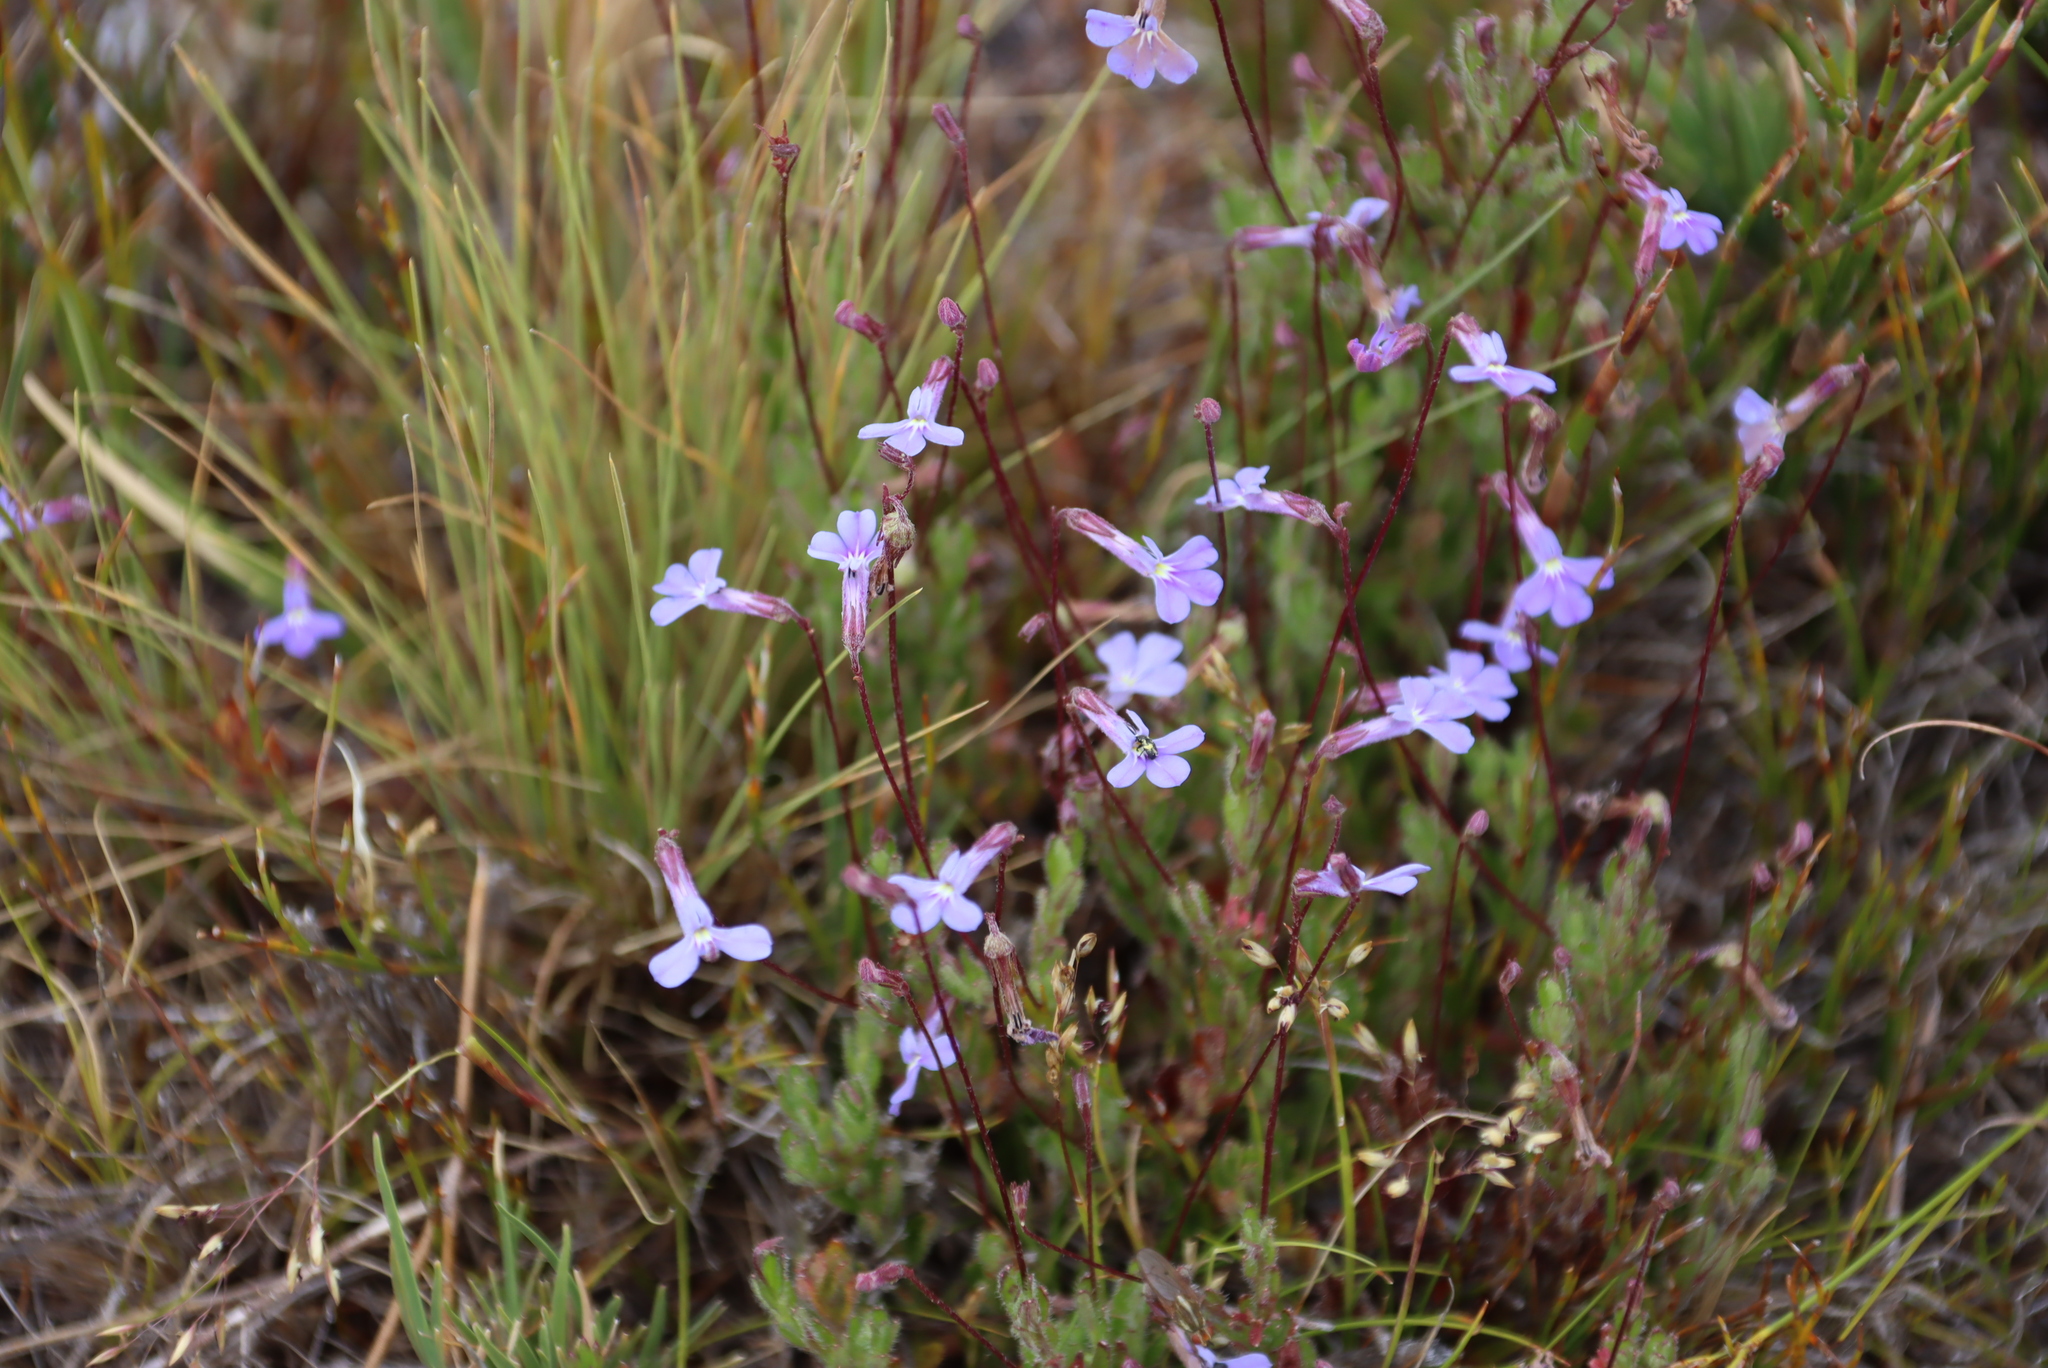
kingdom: Plantae
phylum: Tracheophyta
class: Magnoliopsida
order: Asterales
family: Campanulaceae
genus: Lobelia
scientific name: Lobelia neglecta
